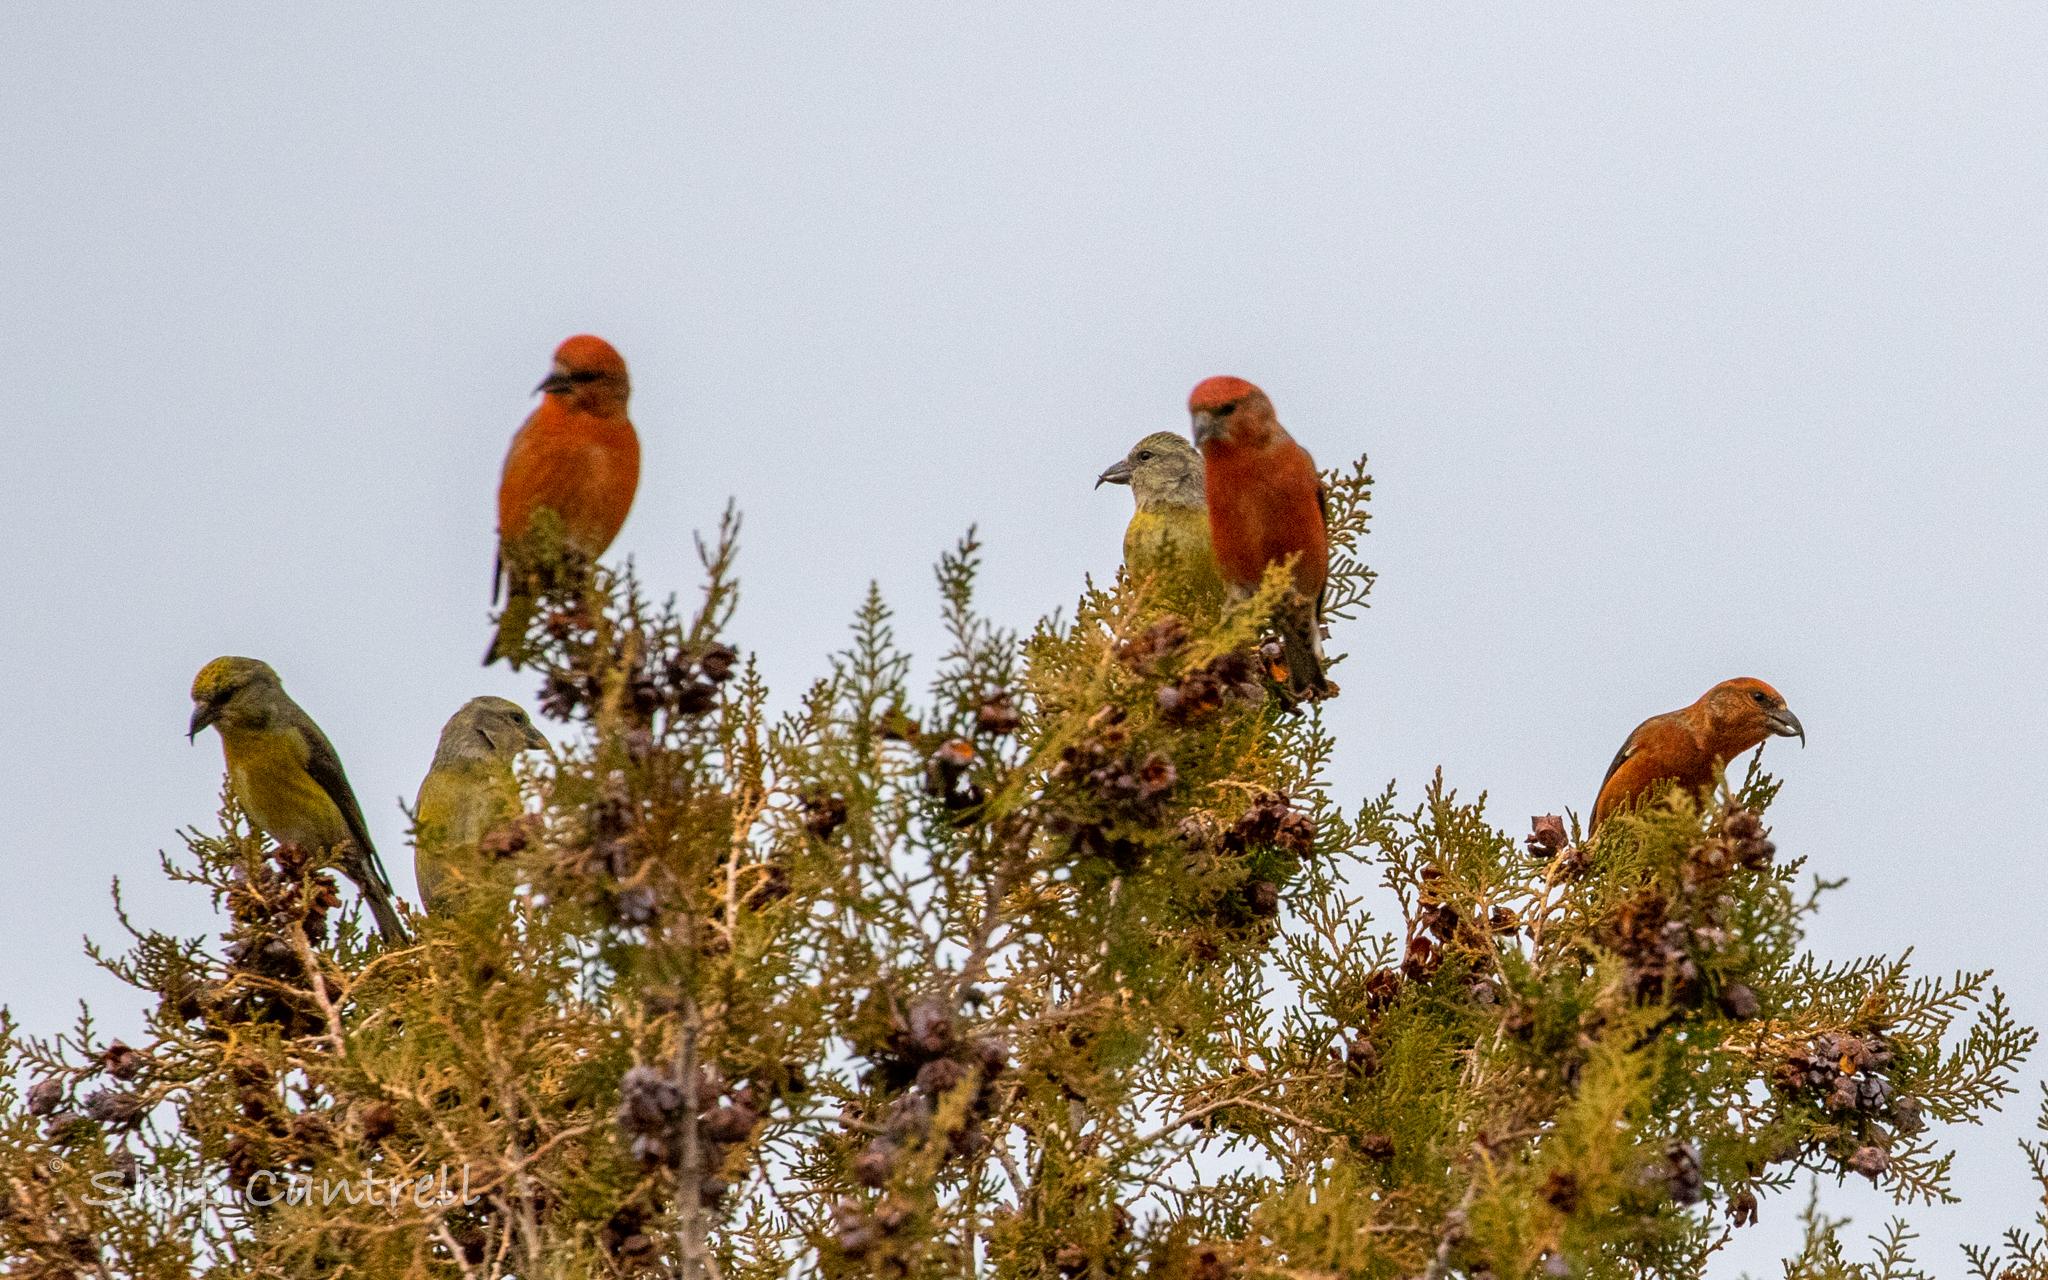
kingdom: Animalia
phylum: Chordata
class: Aves
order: Passeriformes
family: Fringillidae
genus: Loxia
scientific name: Loxia curvirostra
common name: Red crossbill
